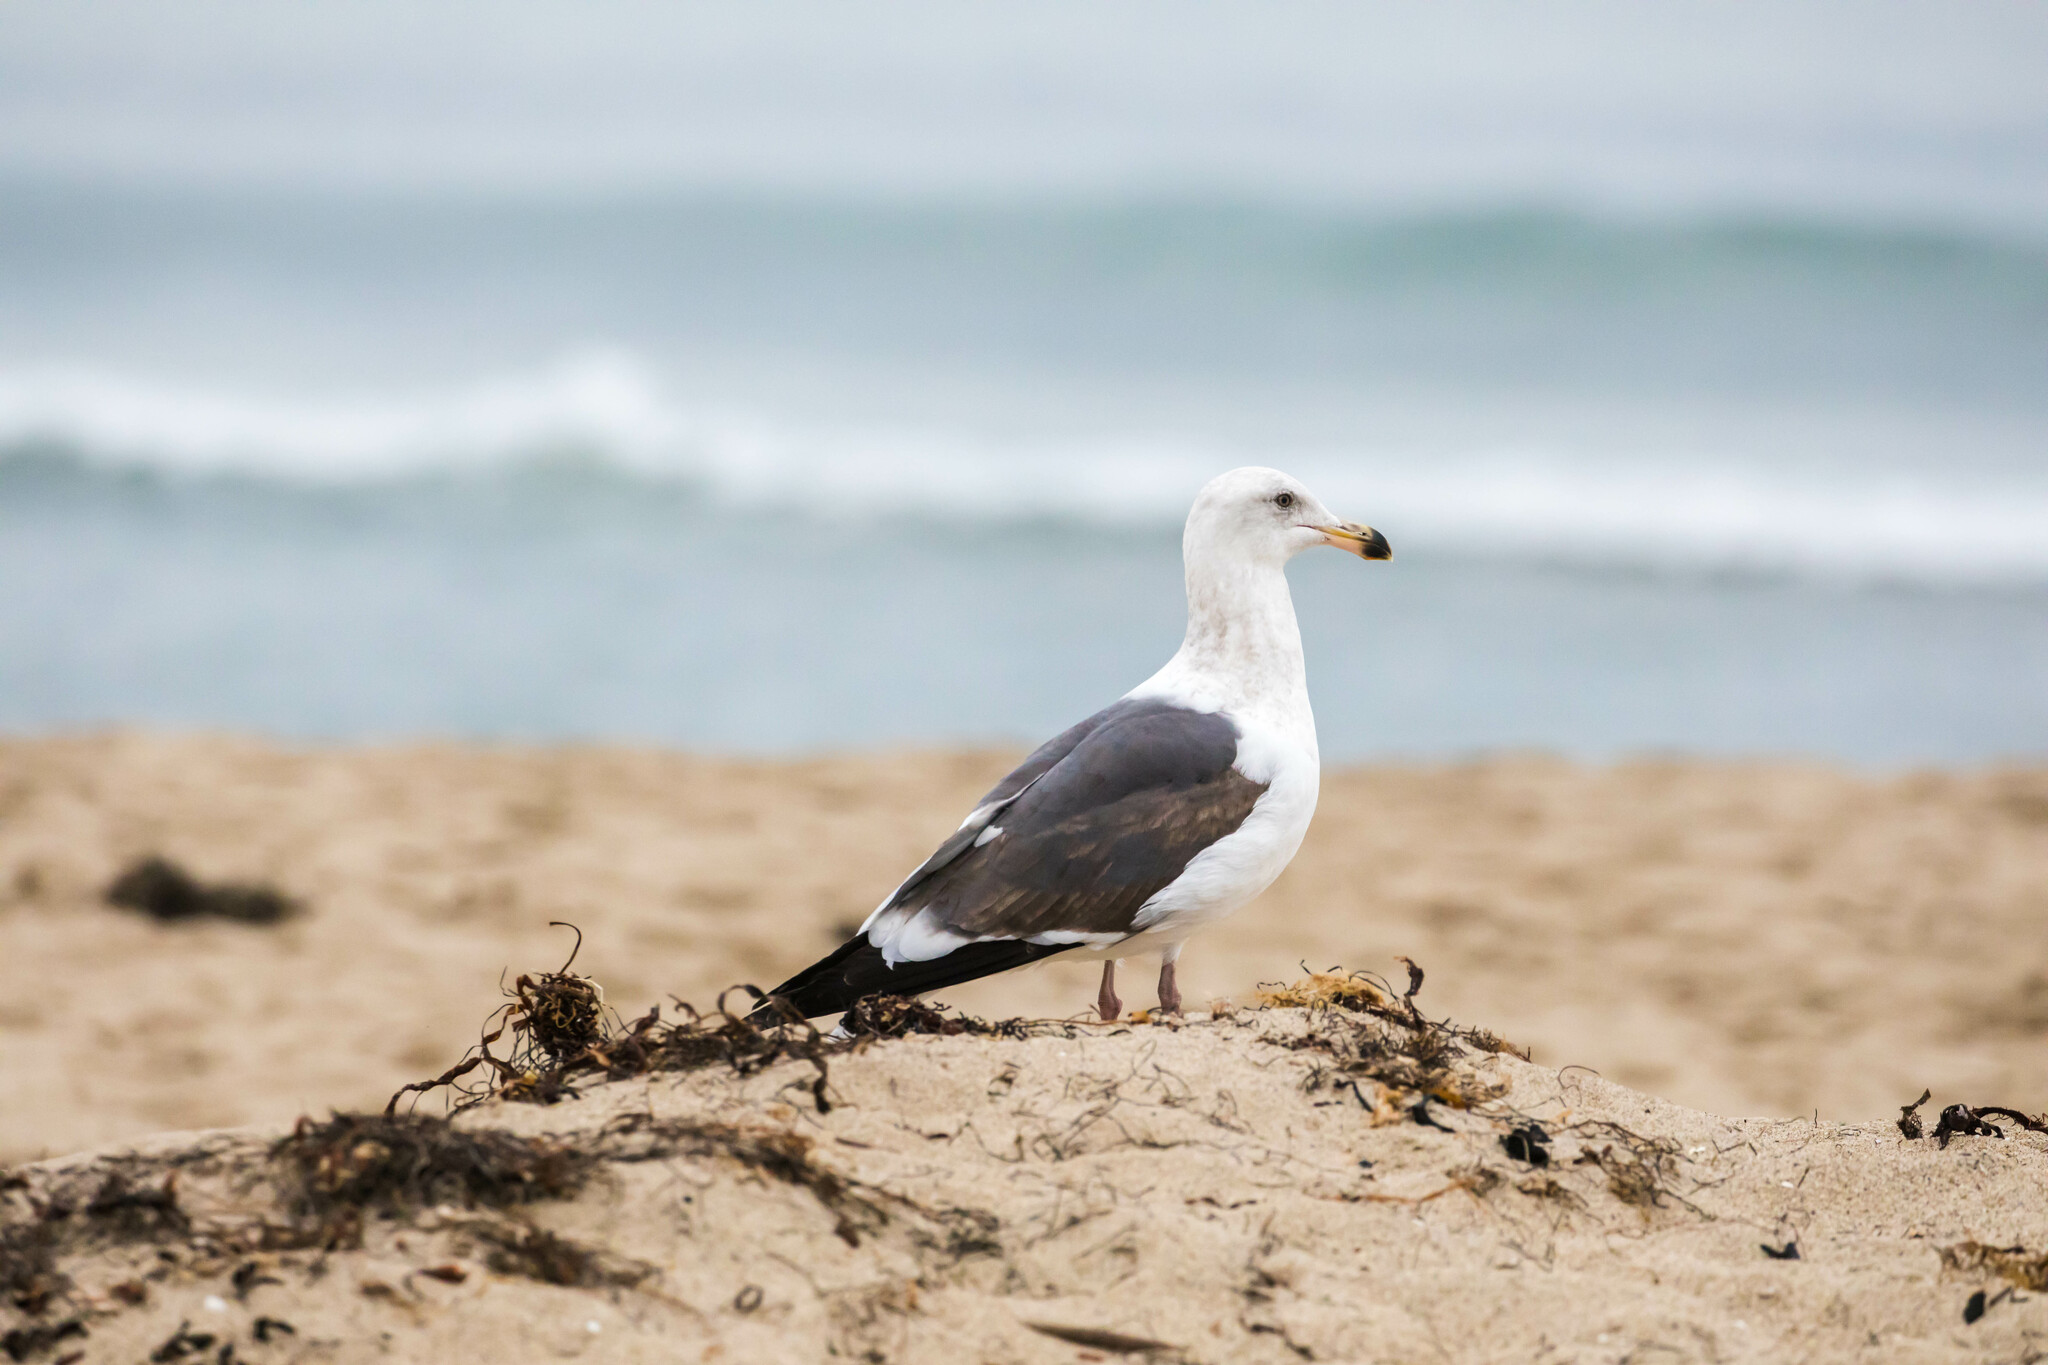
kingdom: Animalia
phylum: Chordata
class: Aves
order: Charadriiformes
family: Laridae
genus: Larus
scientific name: Larus occidentalis
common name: Western gull
